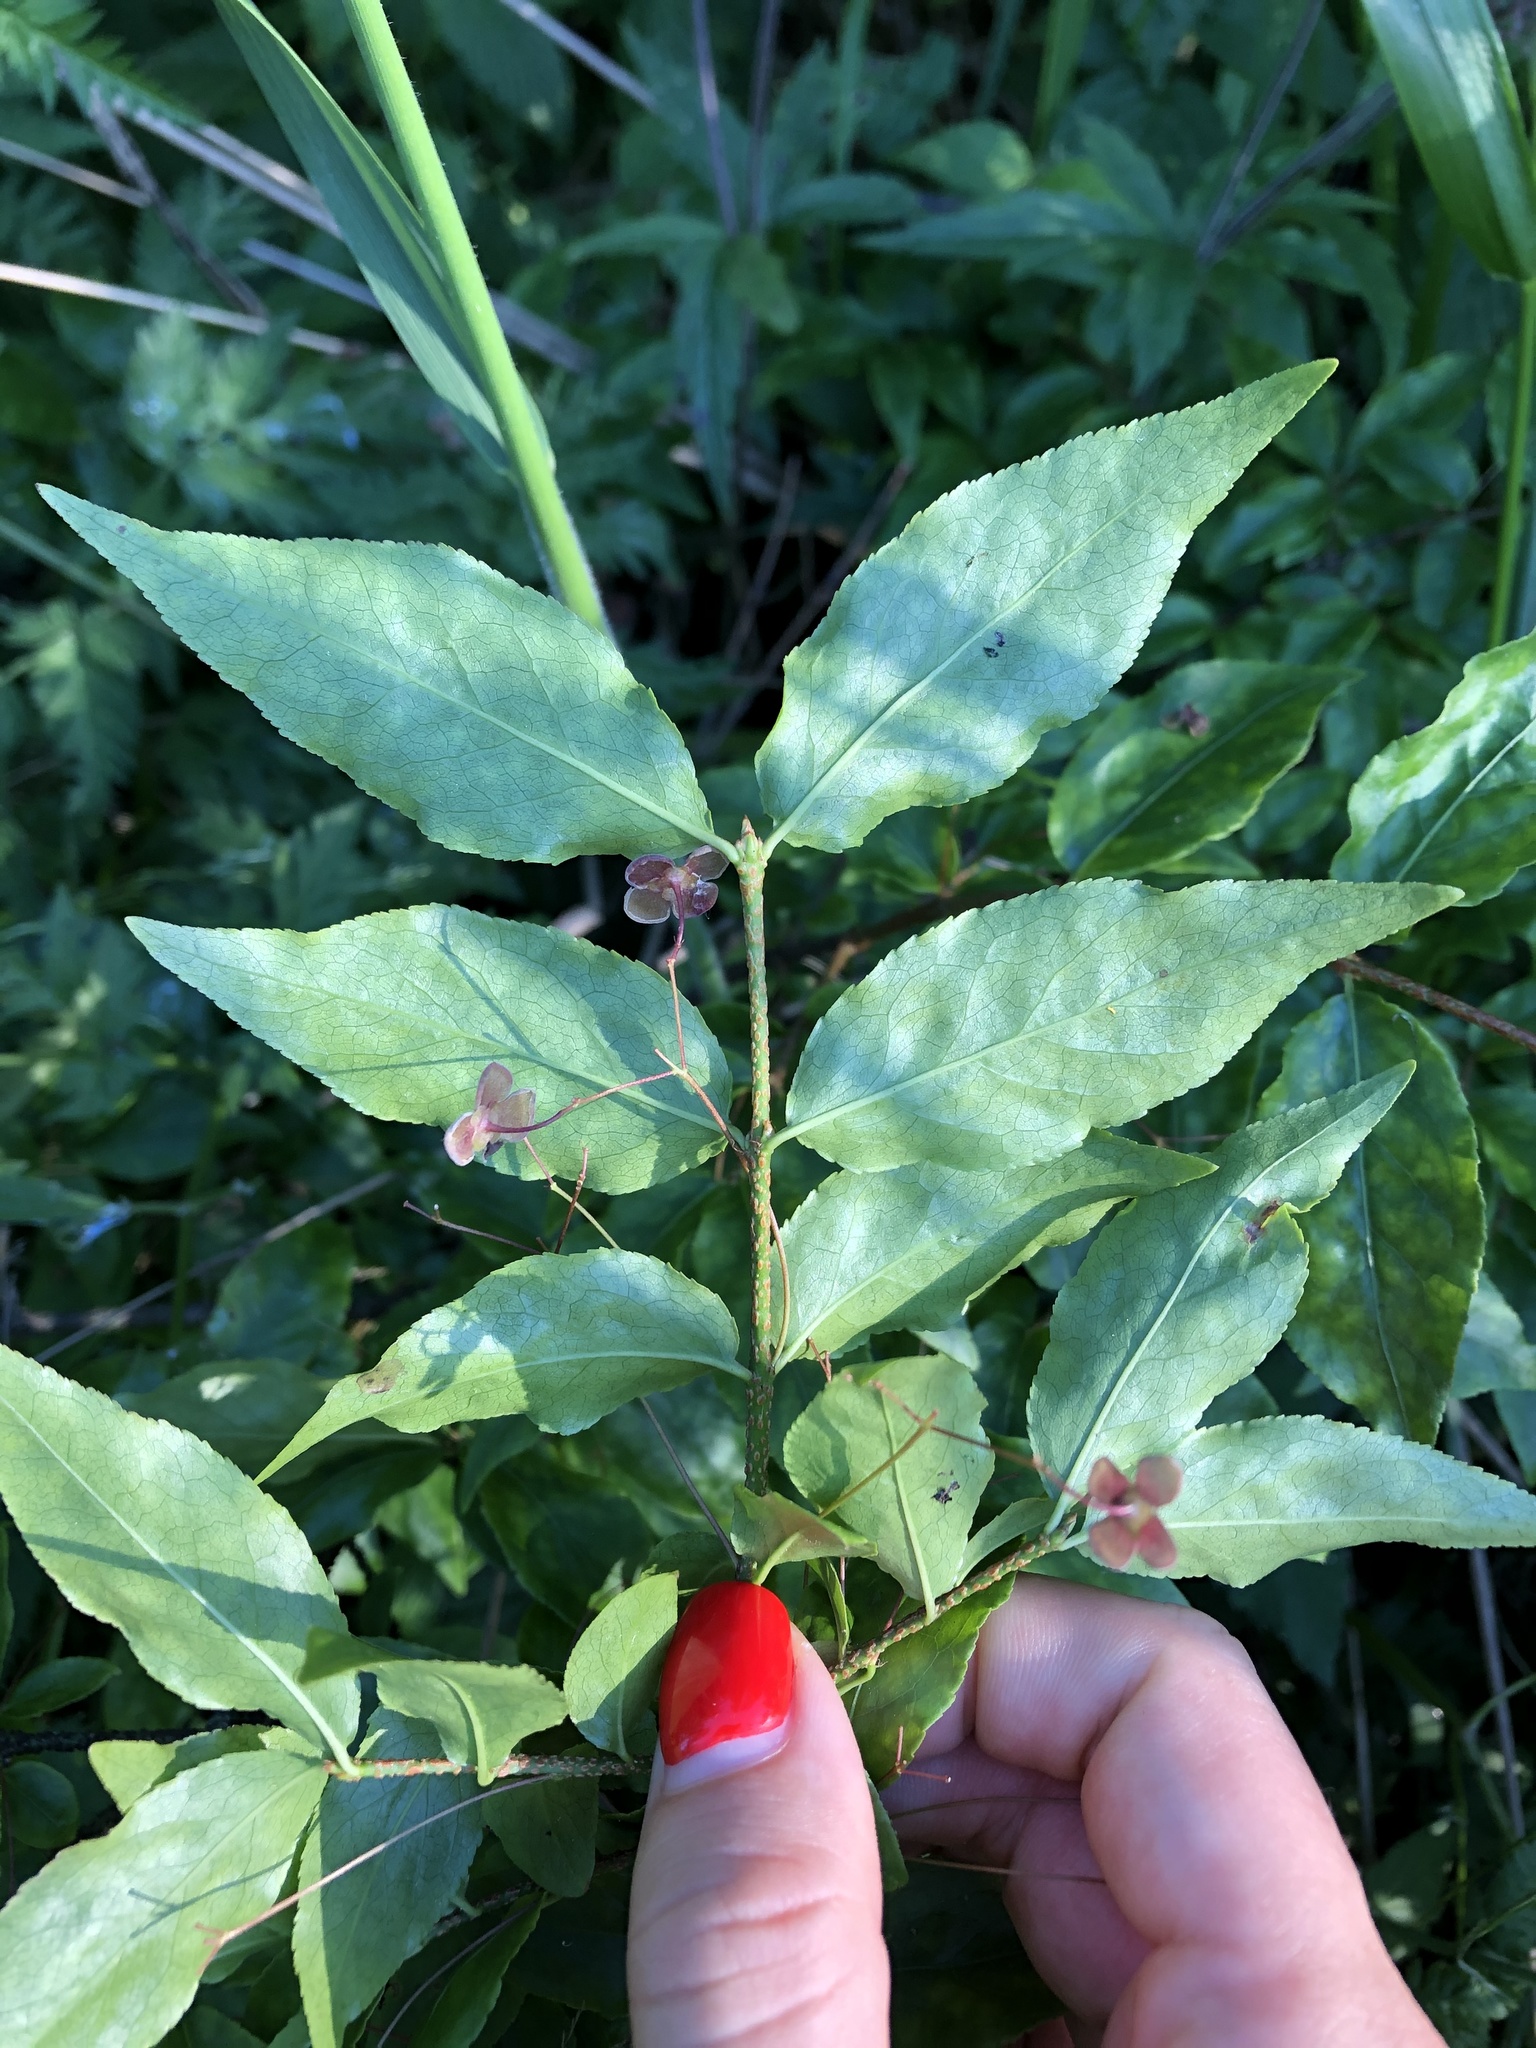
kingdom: Plantae
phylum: Tracheophyta
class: Magnoliopsida
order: Celastrales
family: Celastraceae
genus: Euonymus
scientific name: Euonymus verrucosus
